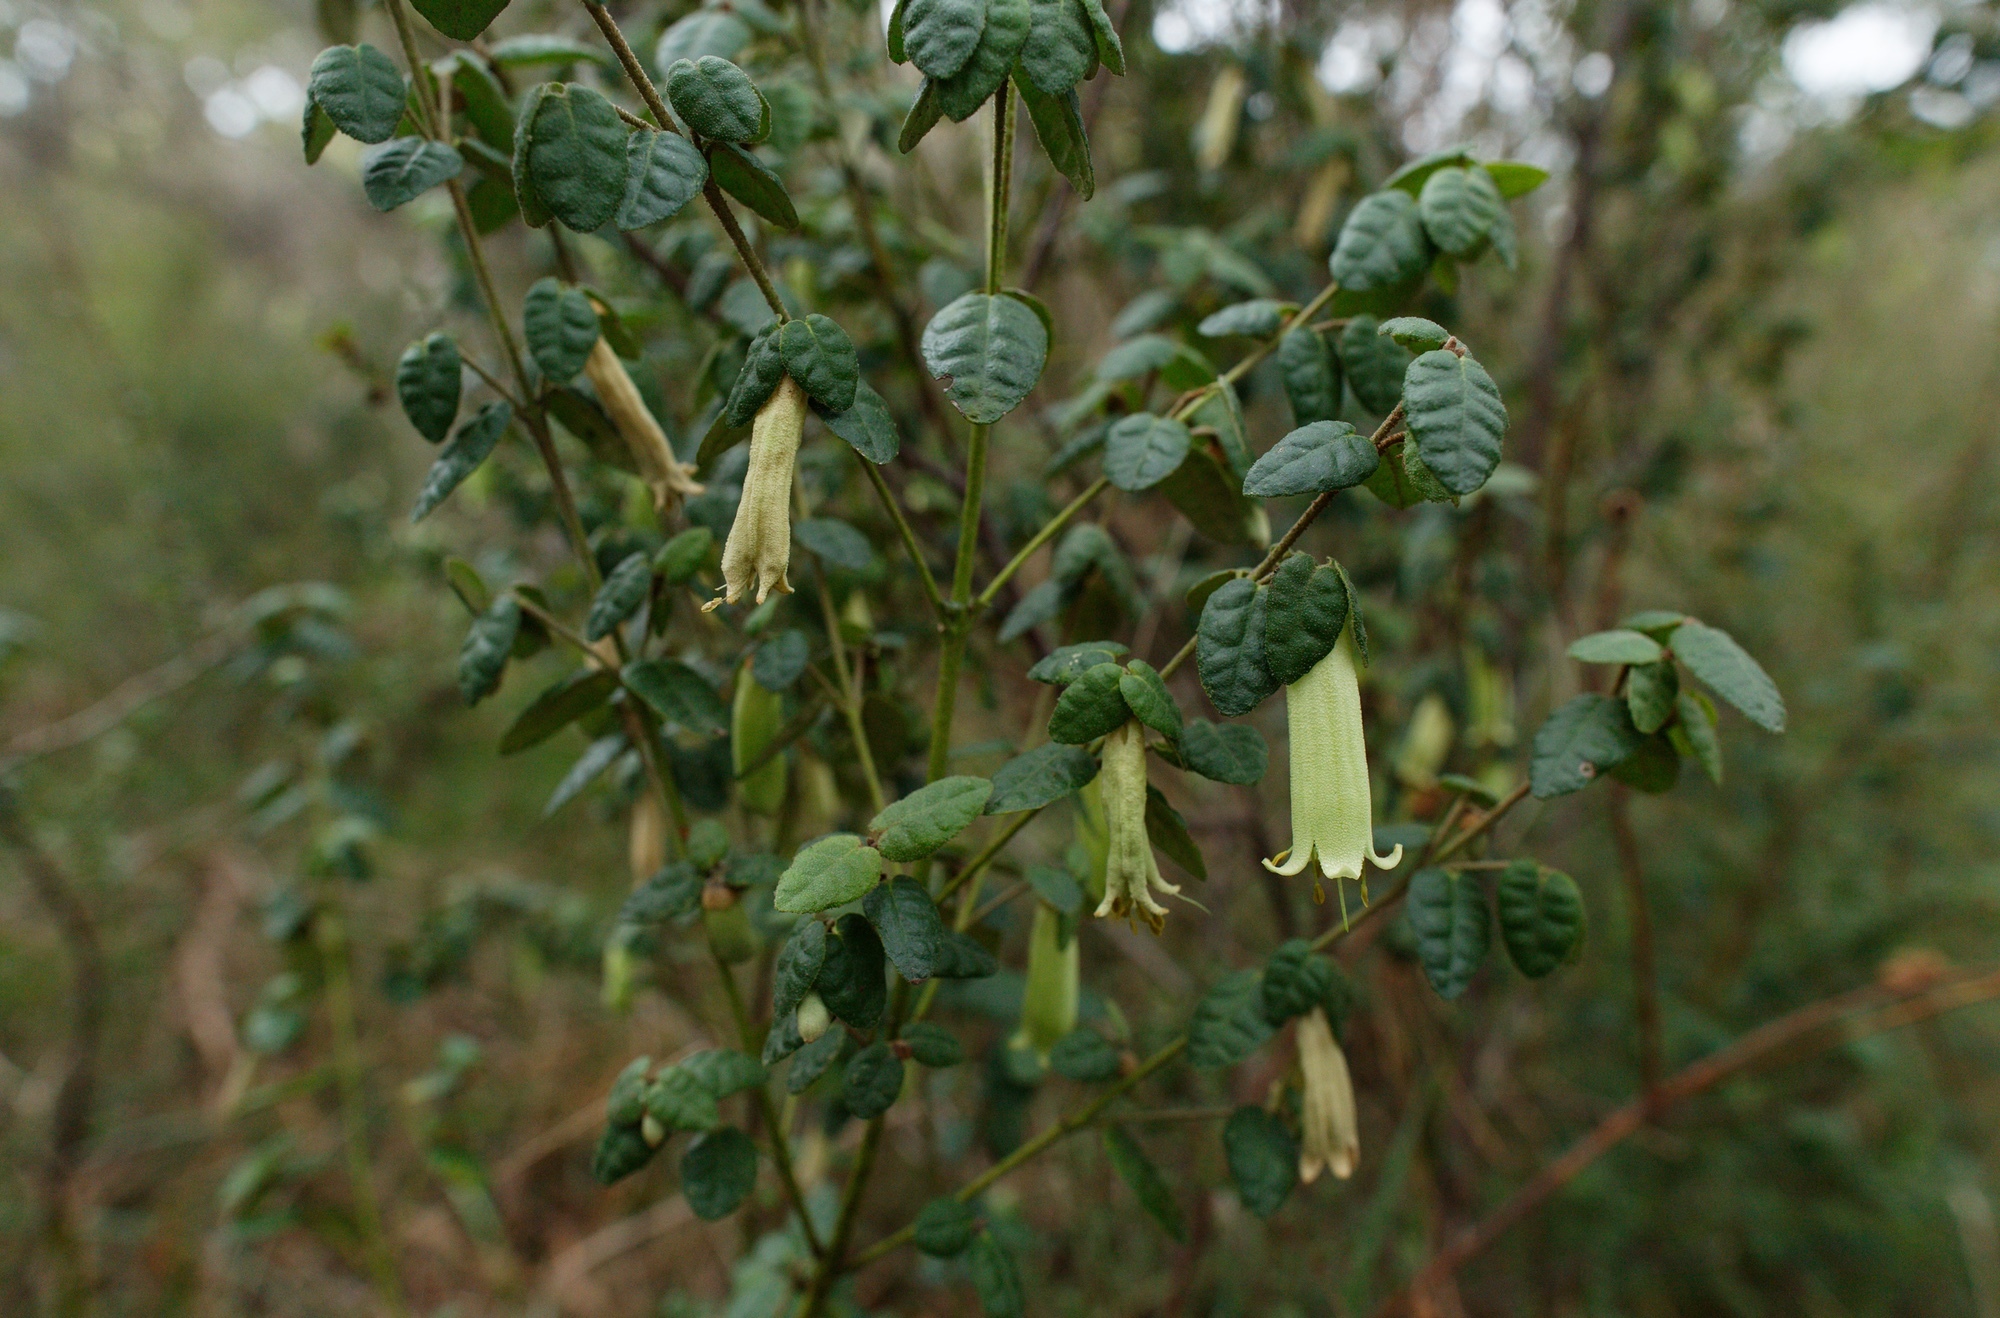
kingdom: Plantae
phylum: Tracheophyta
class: Magnoliopsida
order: Sapindales
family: Rutaceae
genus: Correa
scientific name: Correa reflexa
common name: Common correa
